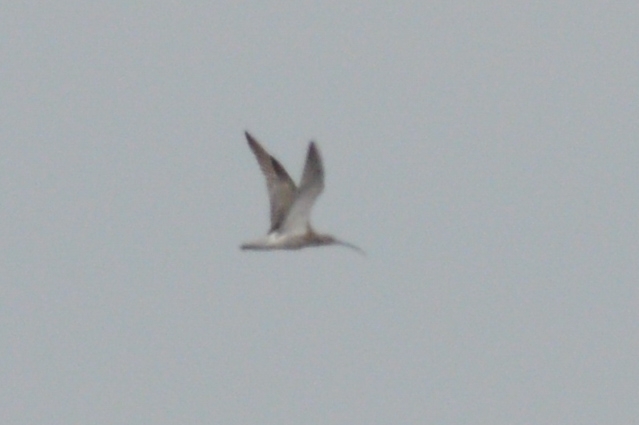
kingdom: Animalia
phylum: Chordata
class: Aves
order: Charadriiformes
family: Scolopacidae
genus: Numenius
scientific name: Numenius arquata
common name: Eurasian curlew
